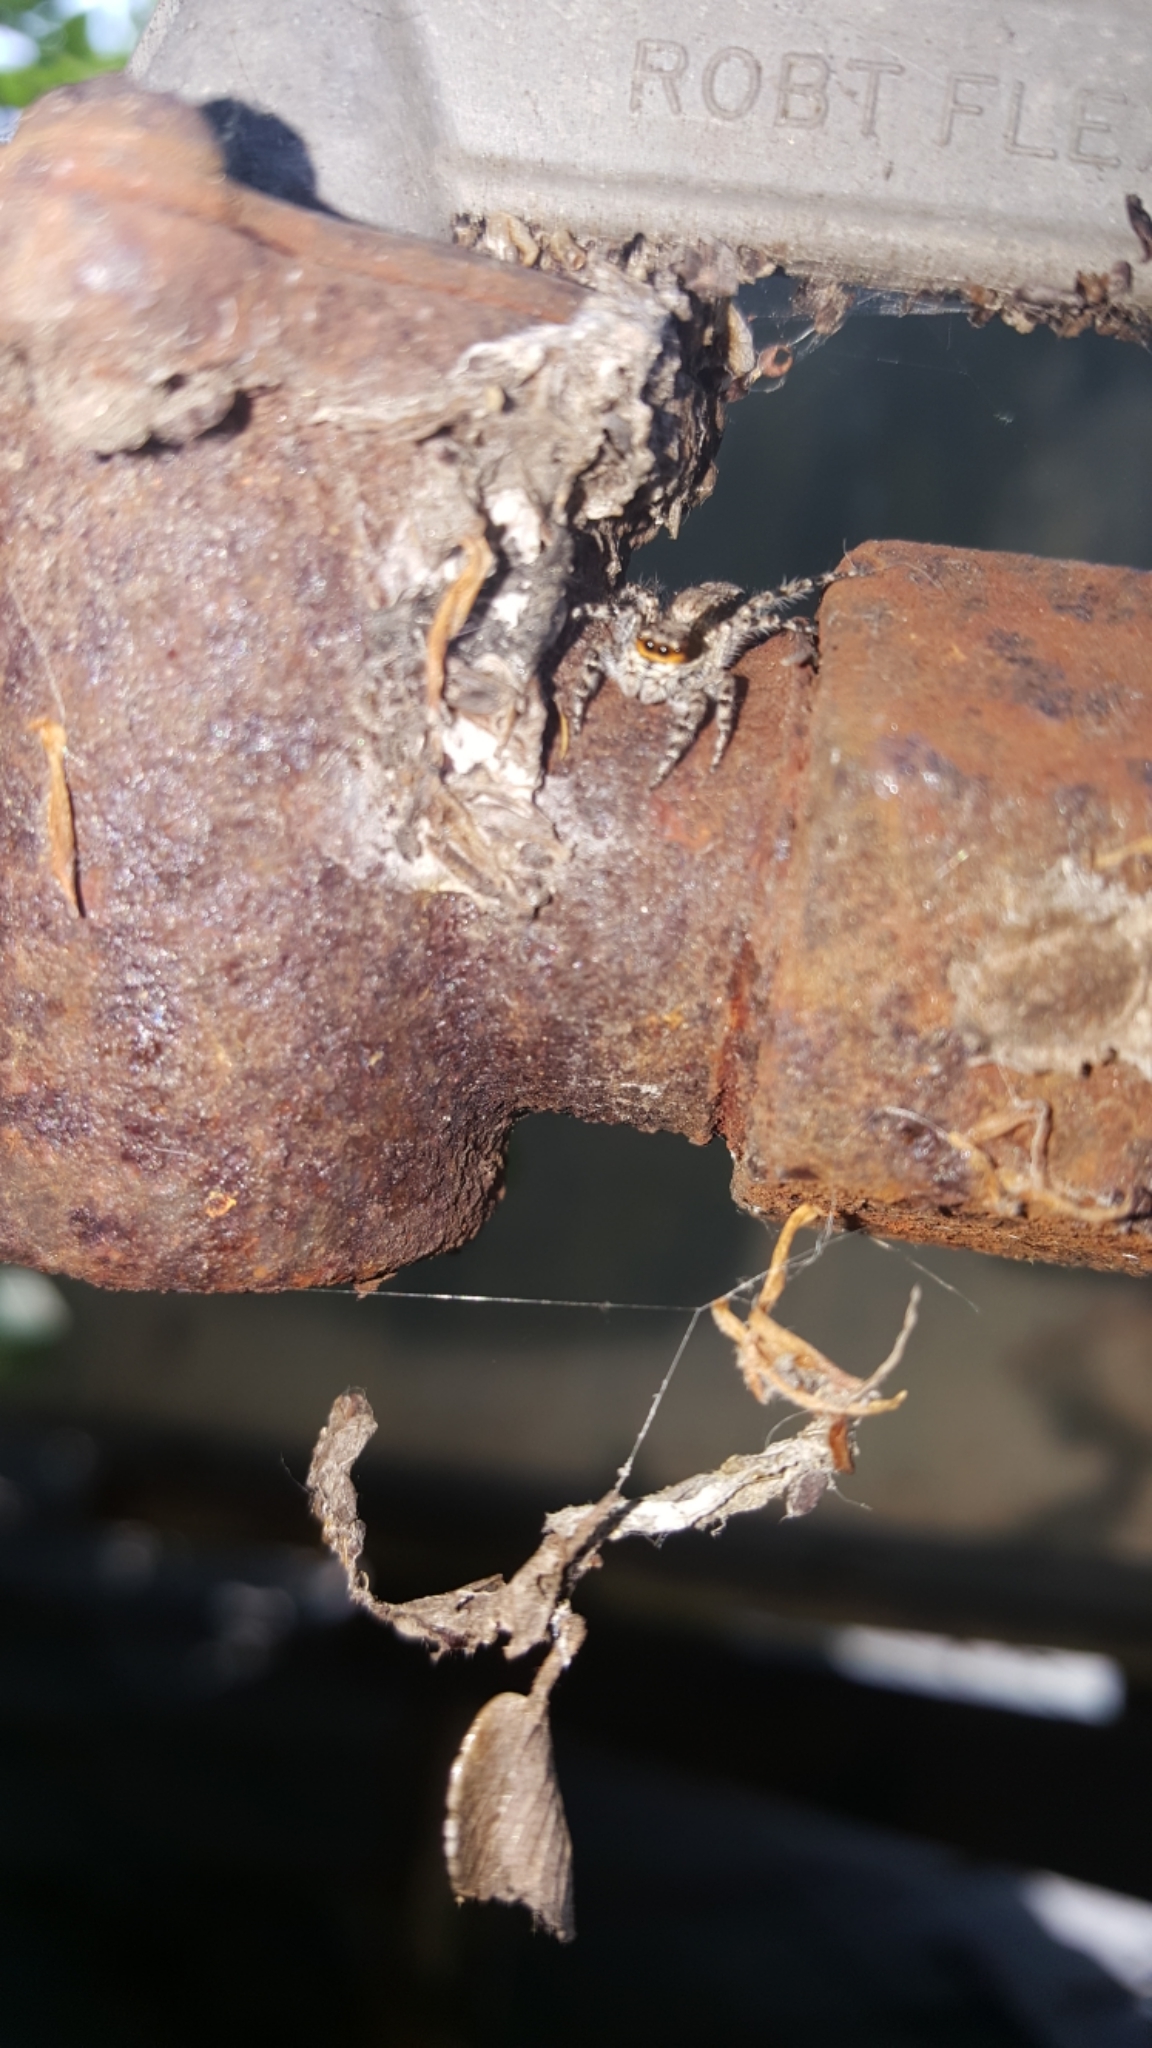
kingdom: Animalia
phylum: Arthropoda
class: Arachnida
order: Araneae
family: Salticidae
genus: Menemerus
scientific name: Menemerus bivittatus
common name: Gray wall jumper
